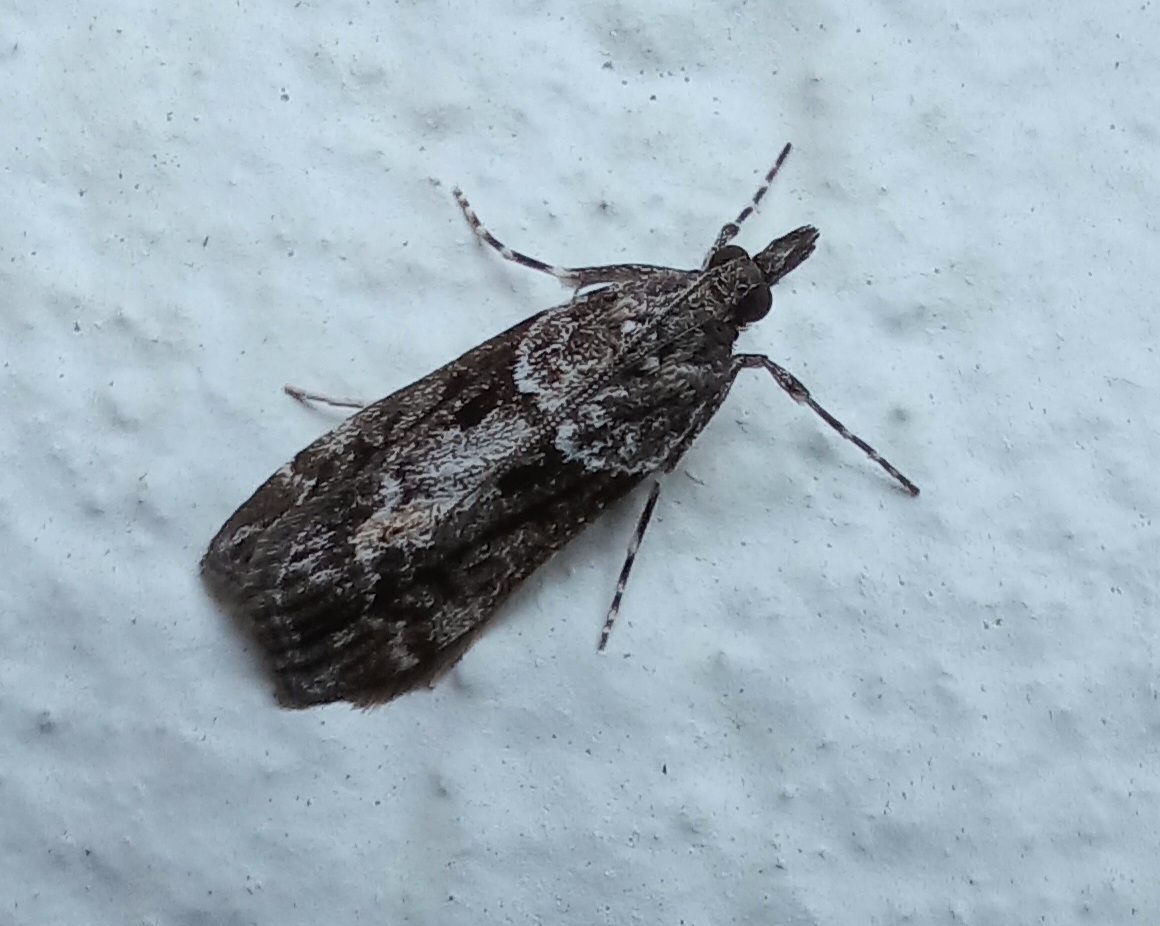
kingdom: Animalia
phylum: Arthropoda
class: Insecta
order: Lepidoptera
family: Crambidae
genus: Eudonia
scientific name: Eudonia submarginalis
